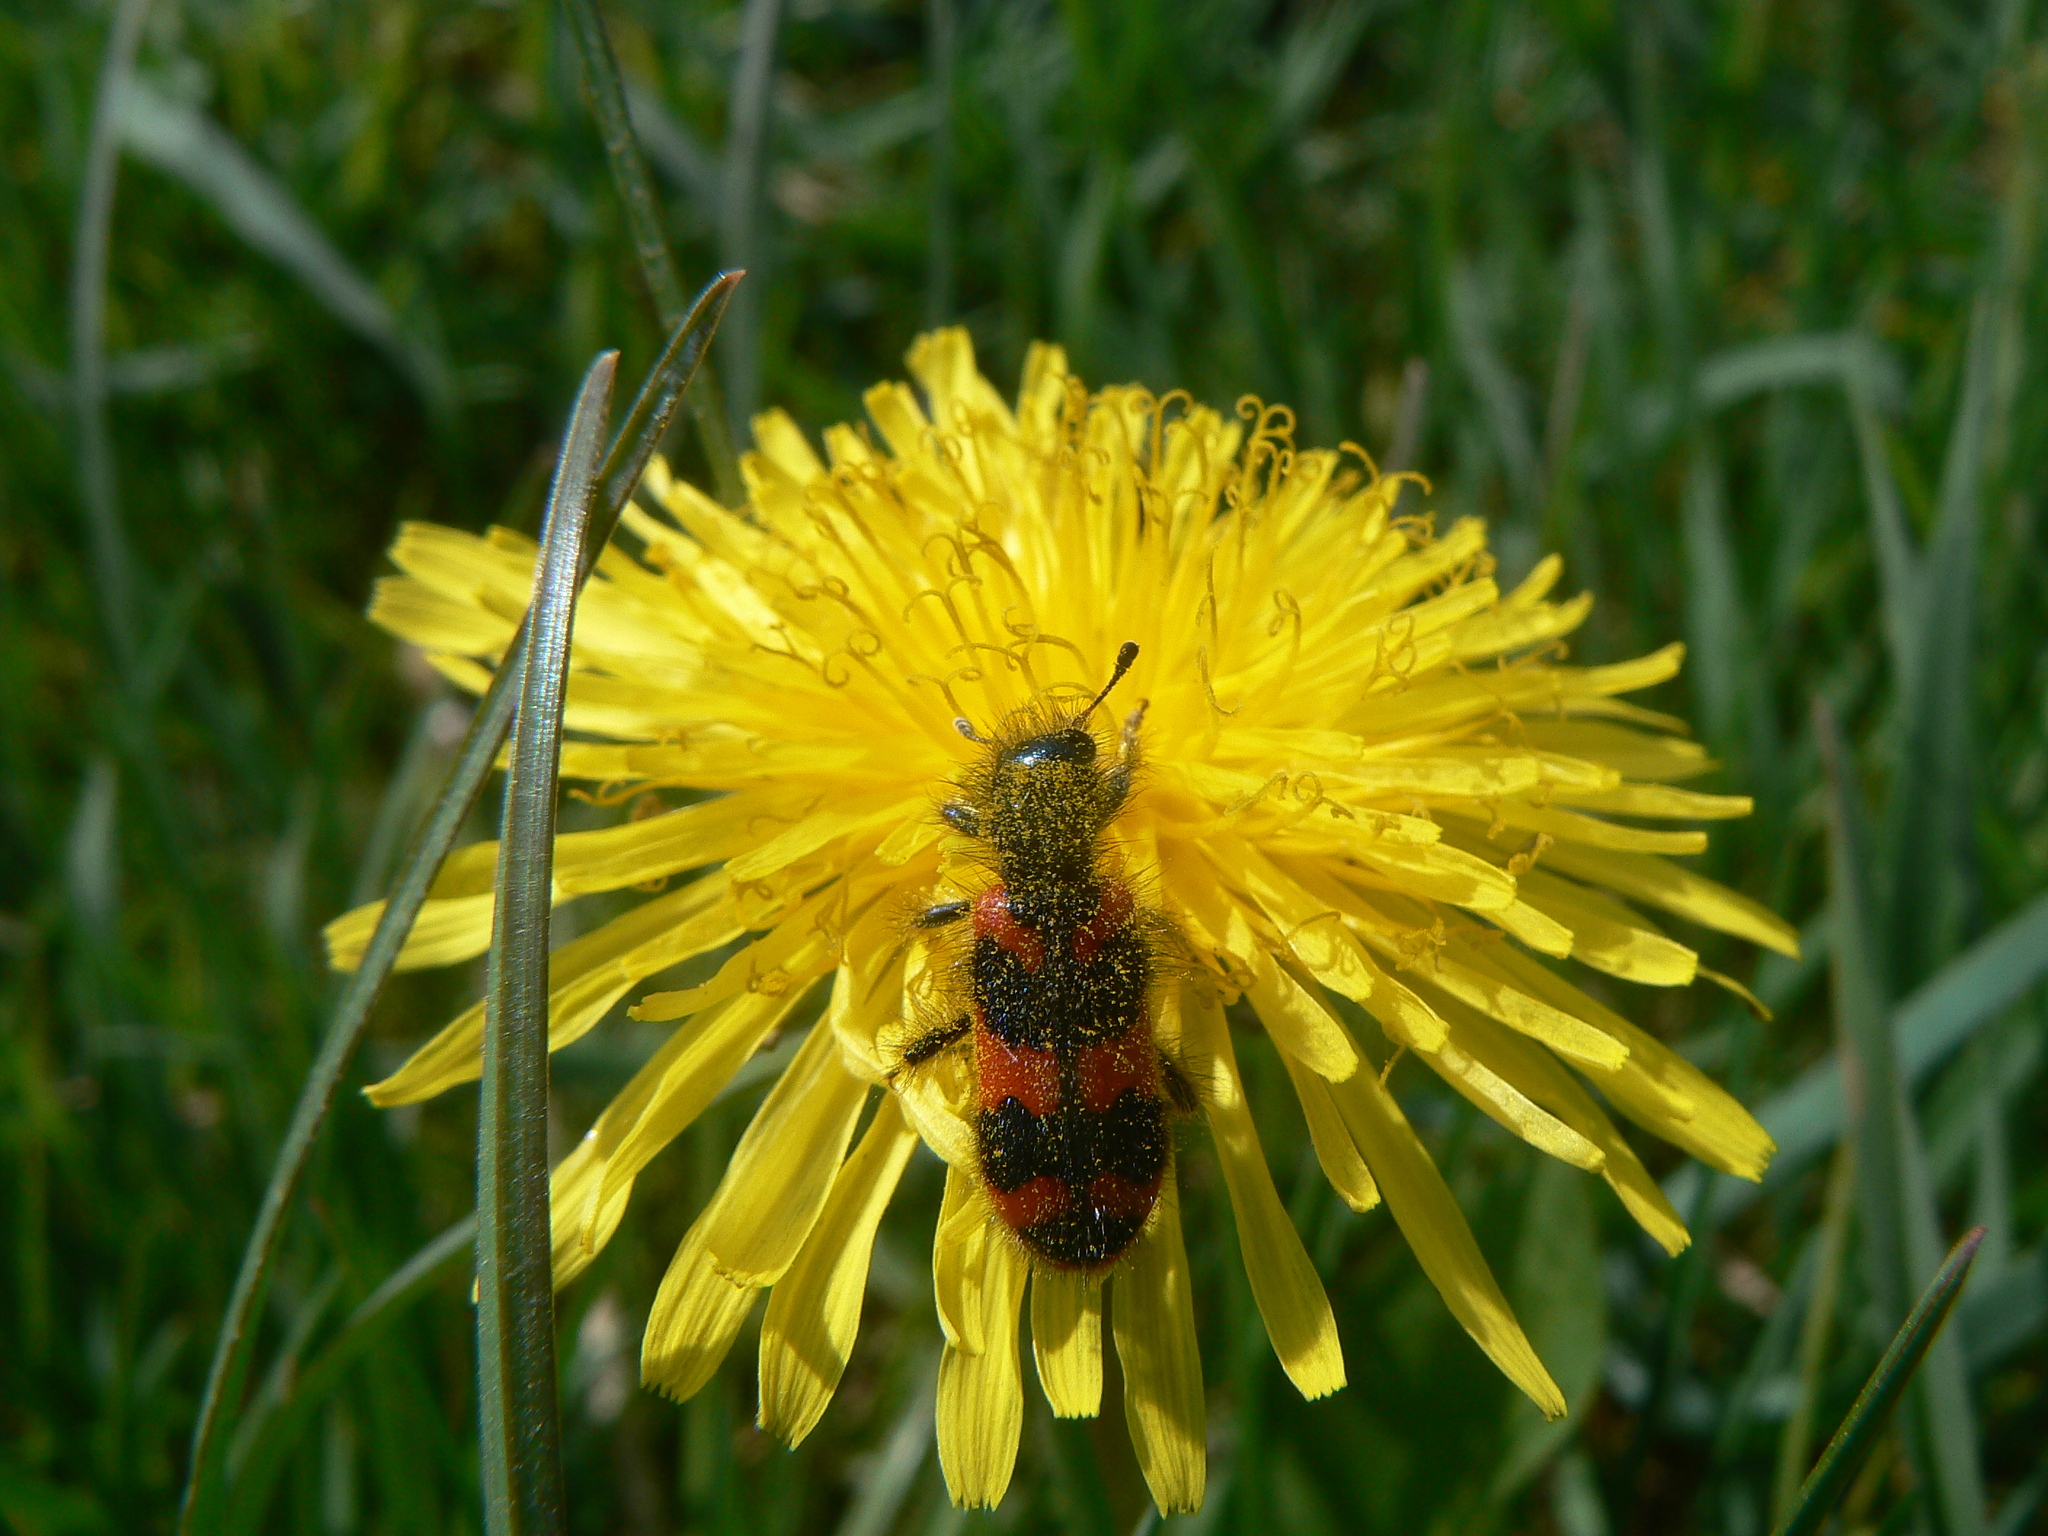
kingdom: Animalia
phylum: Arthropoda
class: Insecta
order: Coleoptera
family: Cleridae
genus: Trichodes
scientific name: Trichodes alvearius
